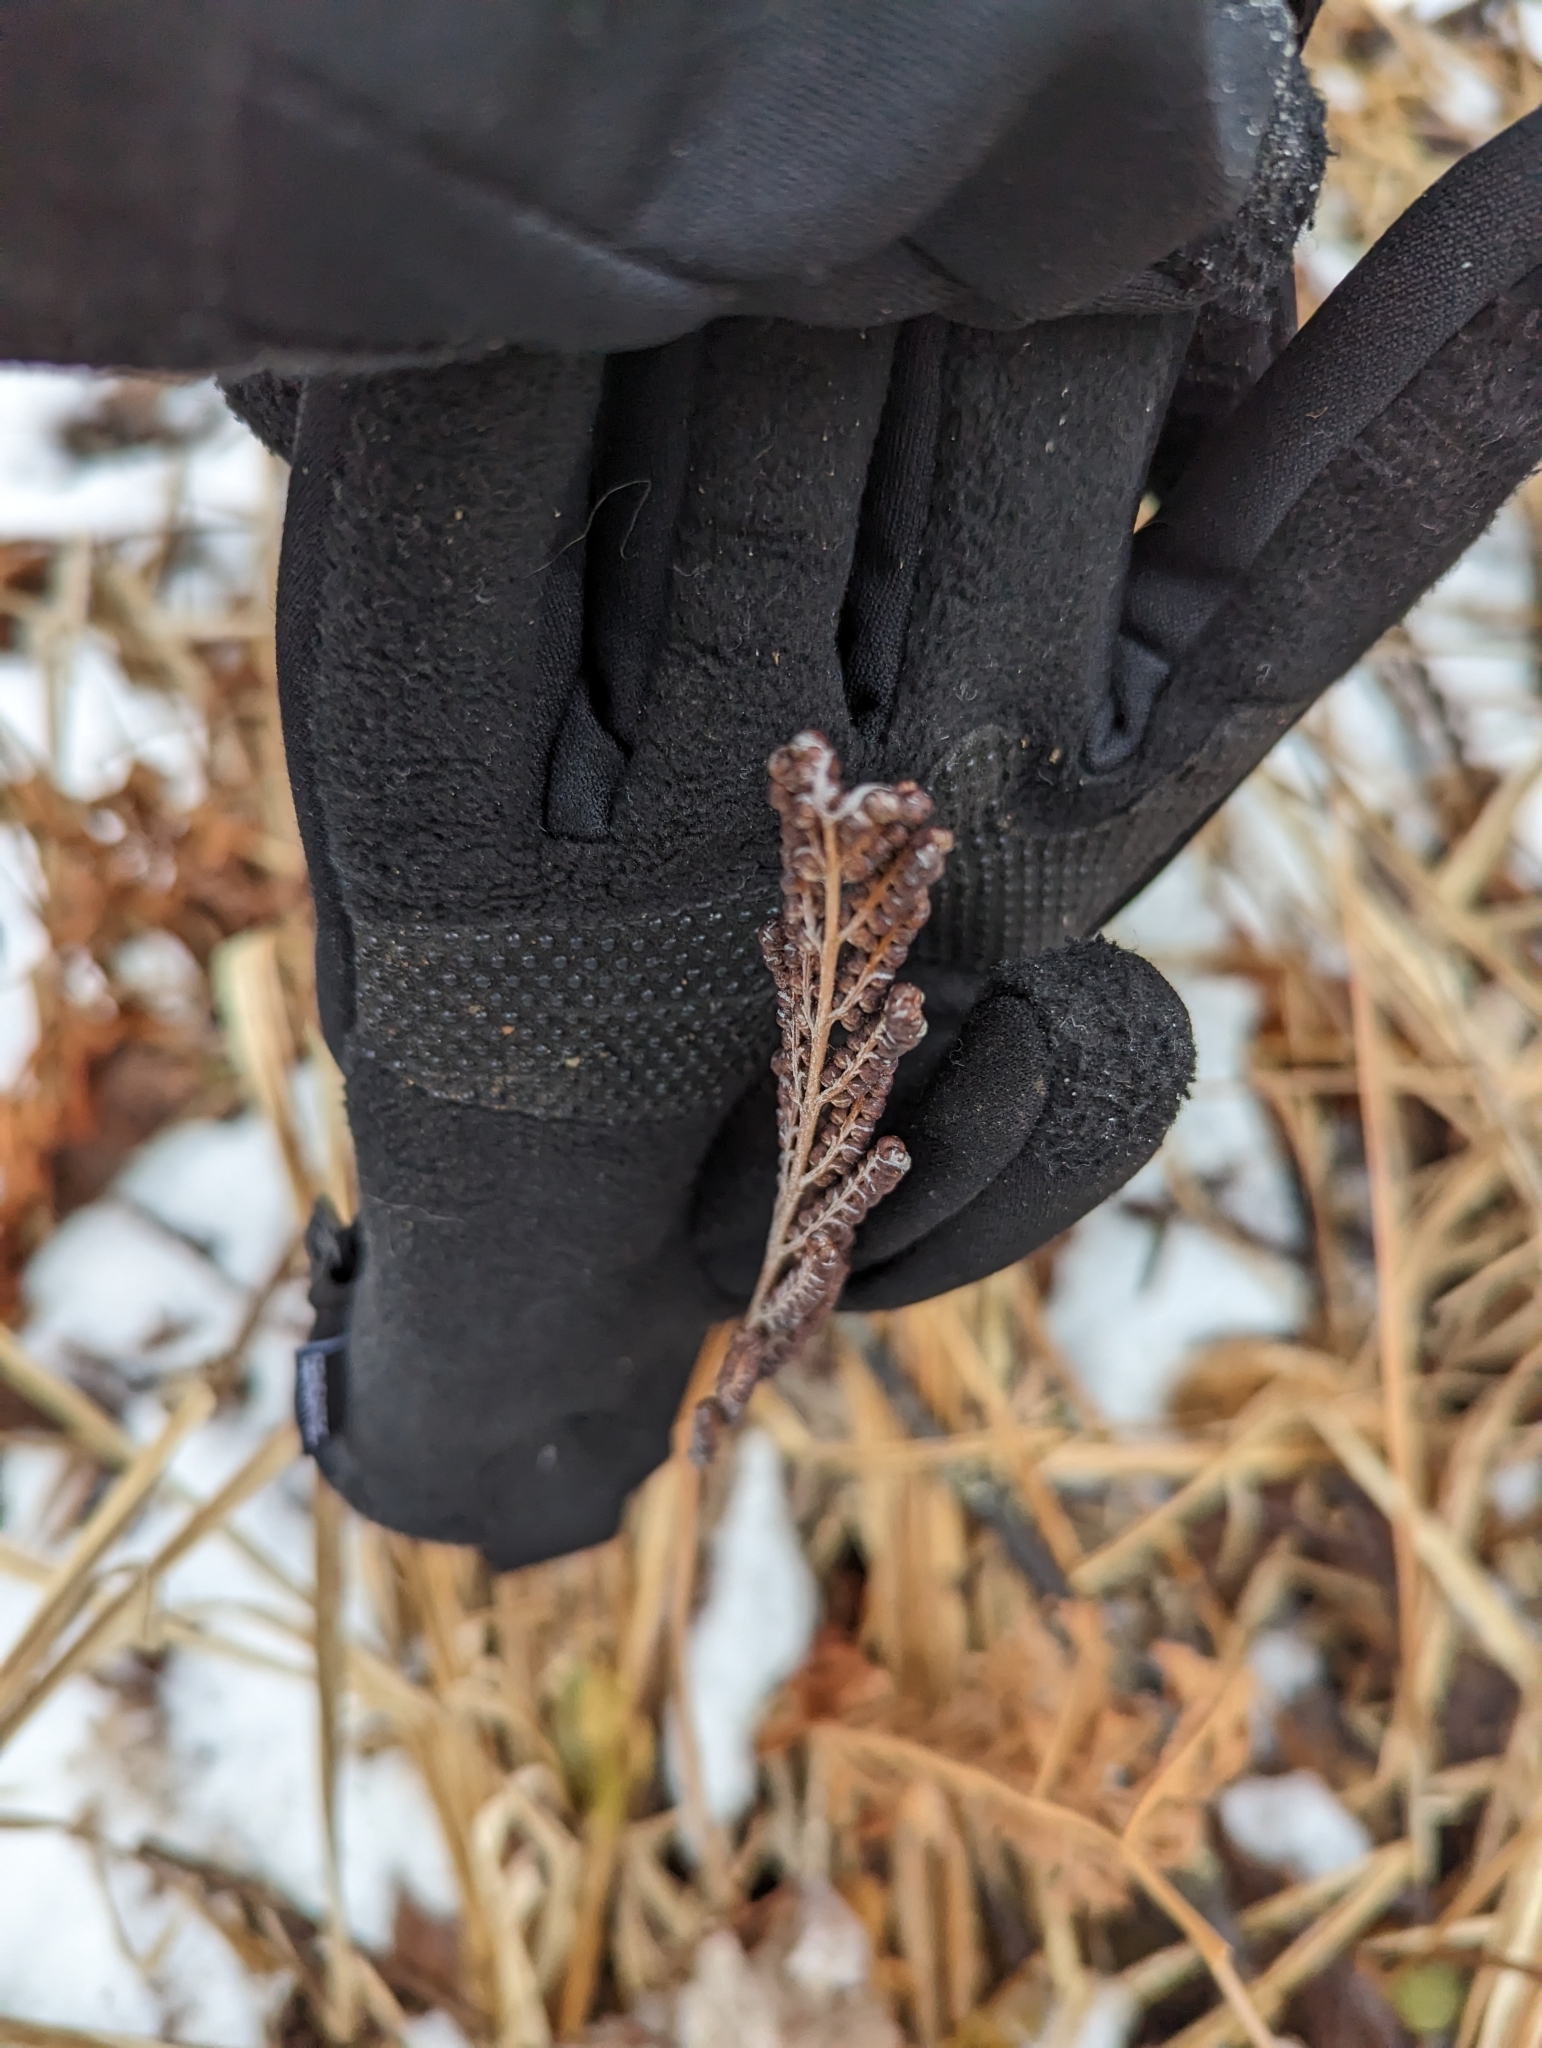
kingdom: Plantae
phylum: Tracheophyta
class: Polypodiopsida
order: Polypodiales
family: Onocleaceae
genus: Onoclea
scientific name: Onoclea sensibilis
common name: Sensitive fern
